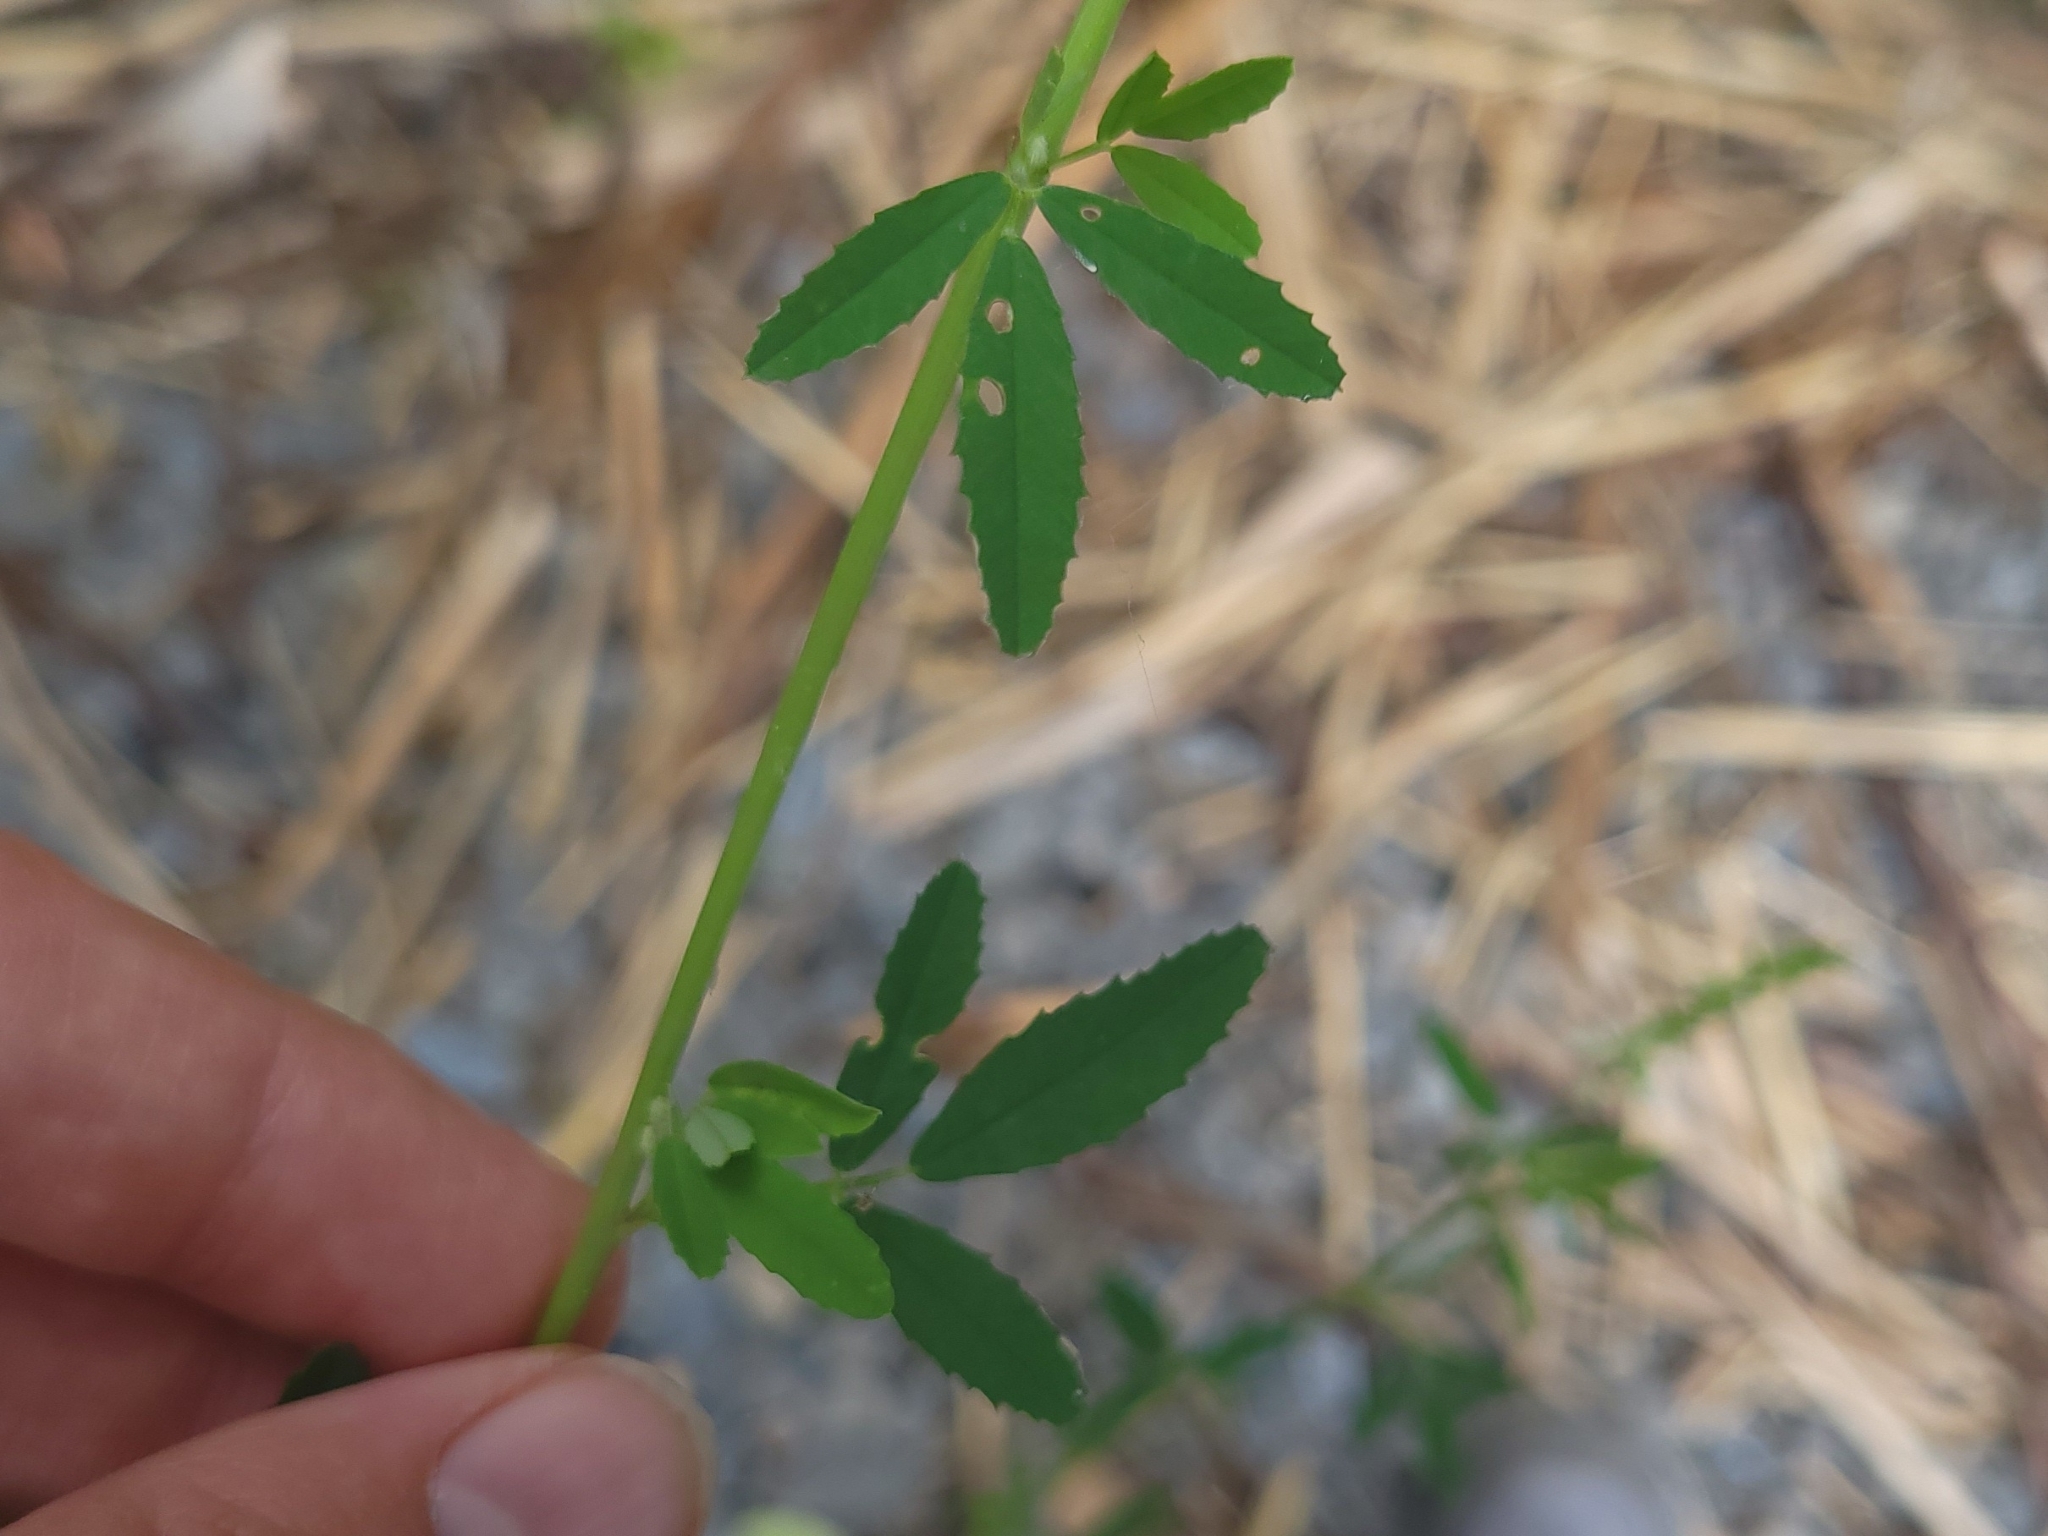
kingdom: Plantae
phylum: Tracheophyta
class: Magnoliopsida
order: Fabales
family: Fabaceae
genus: Melilotus
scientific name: Melilotus albus
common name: White melilot
